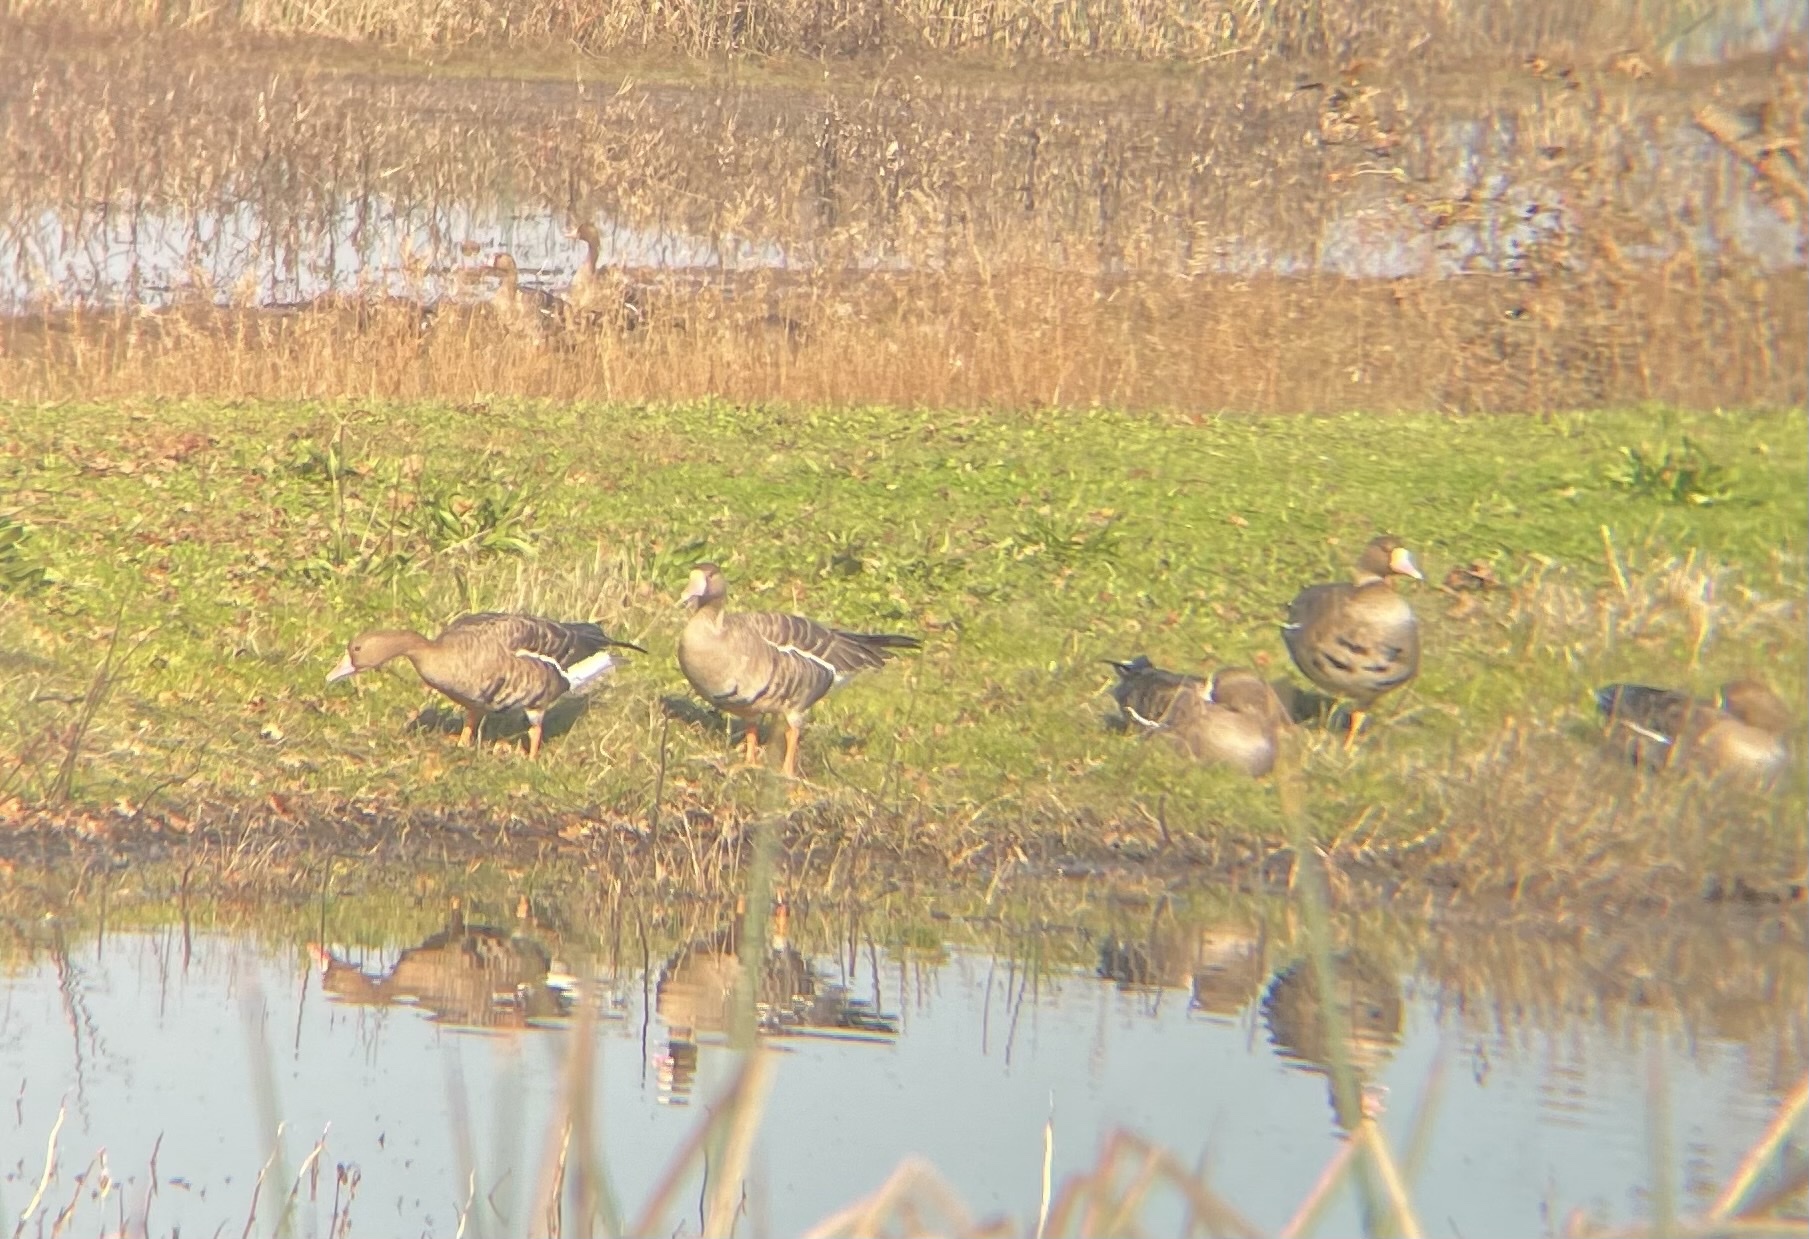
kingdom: Animalia
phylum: Chordata
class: Aves
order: Anseriformes
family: Anatidae
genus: Anser
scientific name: Anser albifrons
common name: Greater white-fronted goose
